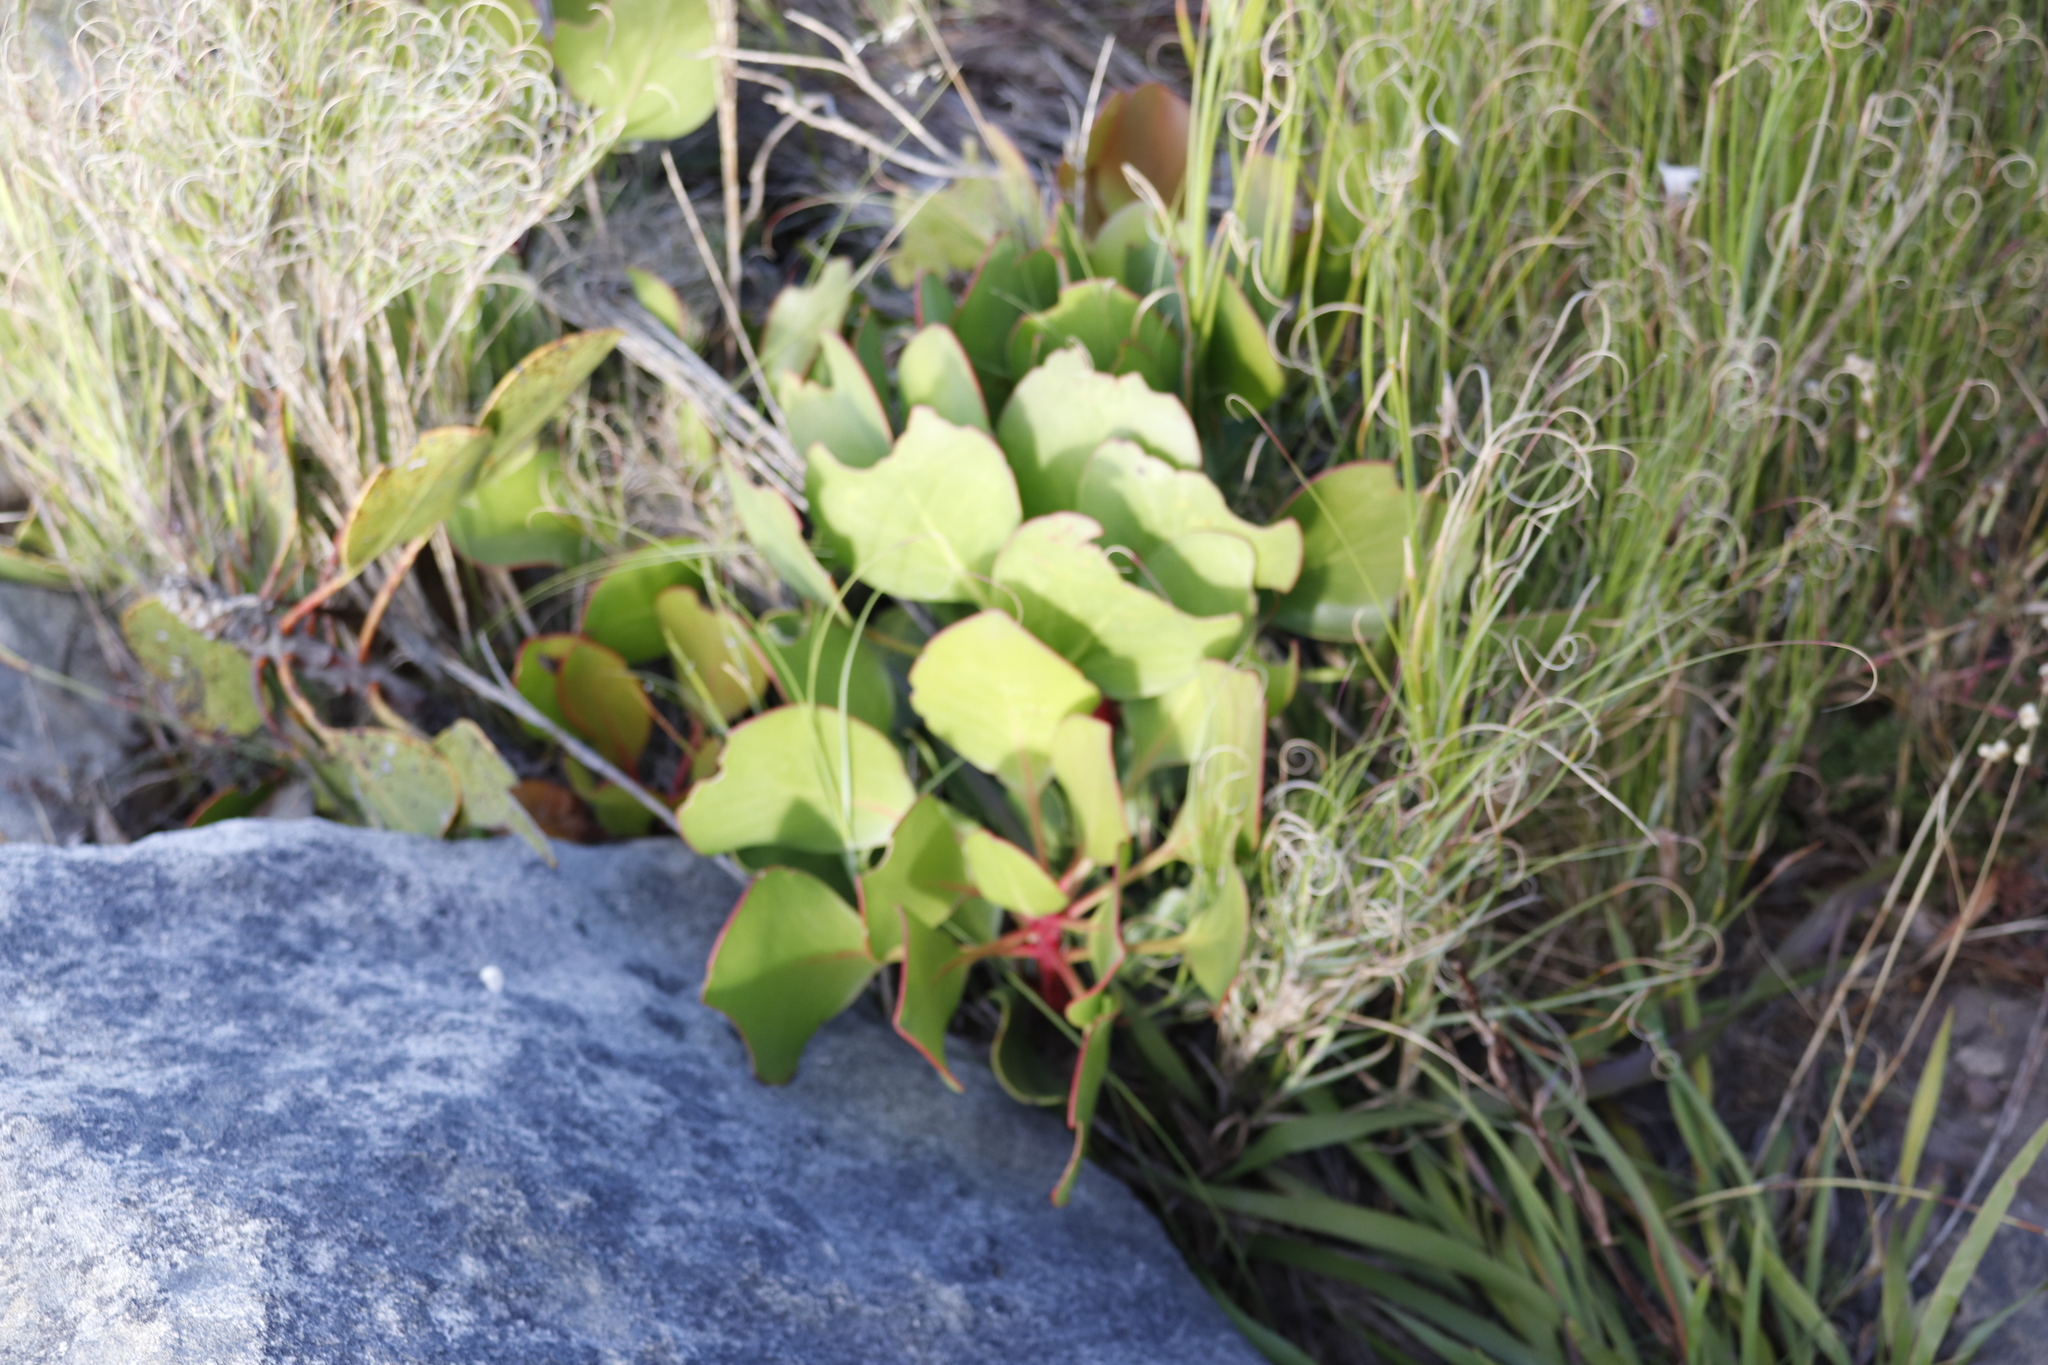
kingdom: Plantae
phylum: Tracheophyta
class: Magnoliopsida
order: Proteales
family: Proteaceae
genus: Protea
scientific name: Protea cynaroides
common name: King protea
